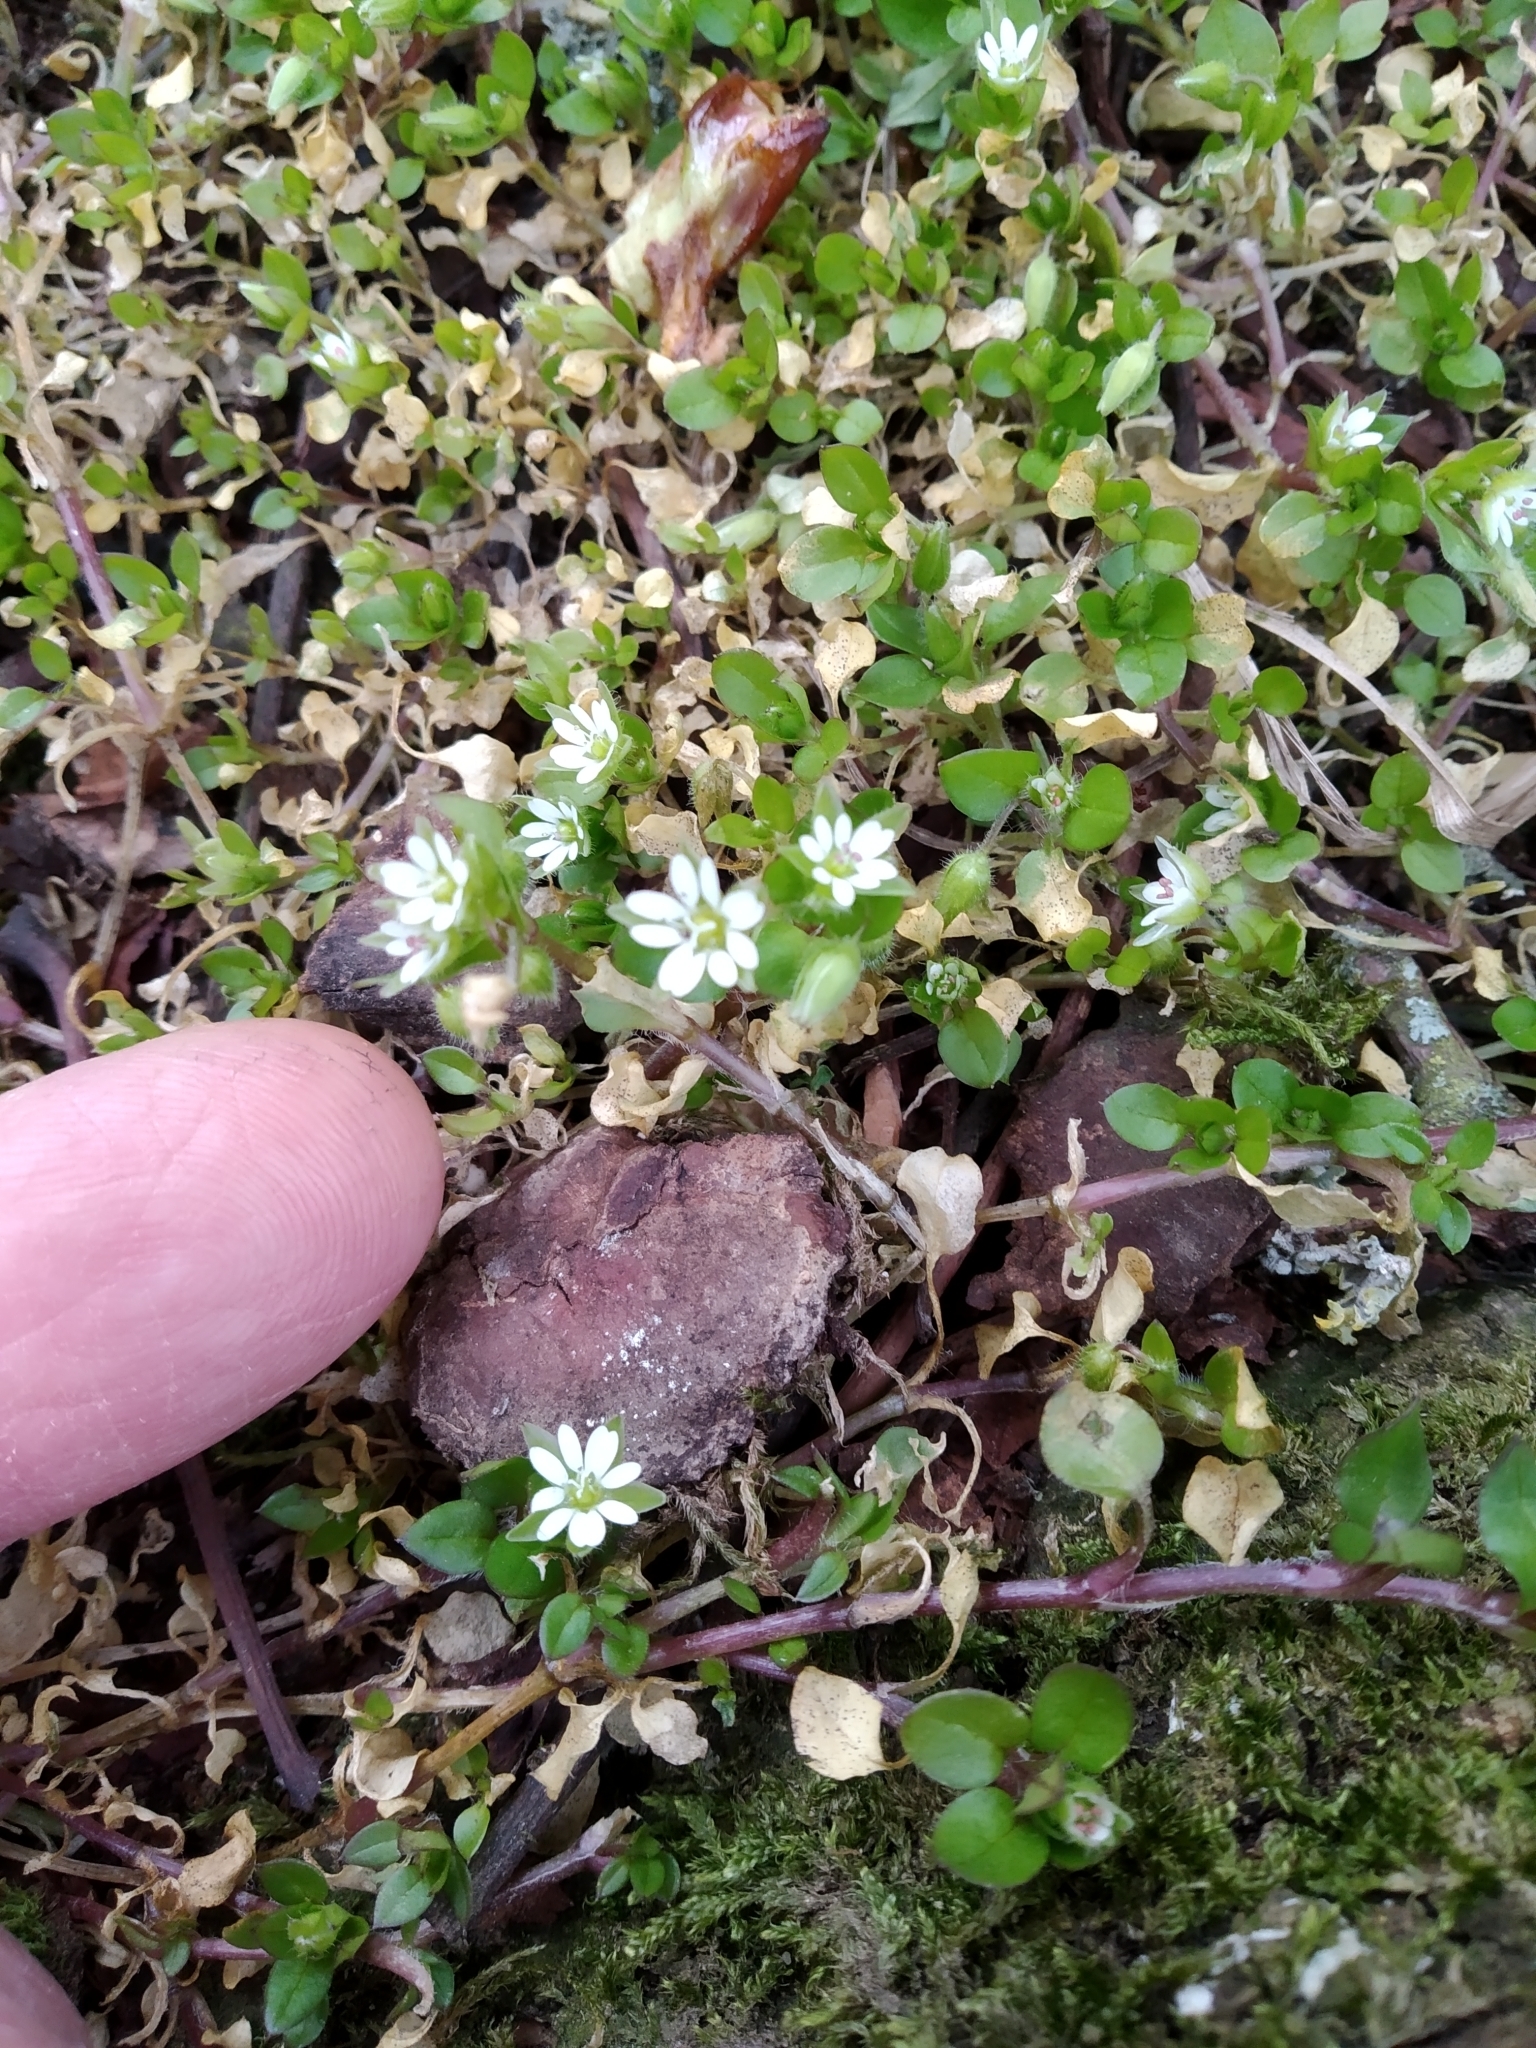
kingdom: Plantae
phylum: Tracheophyta
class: Magnoliopsida
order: Caryophyllales
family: Caryophyllaceae
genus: Stellaria
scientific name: Stellaria media
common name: Common chickweed
